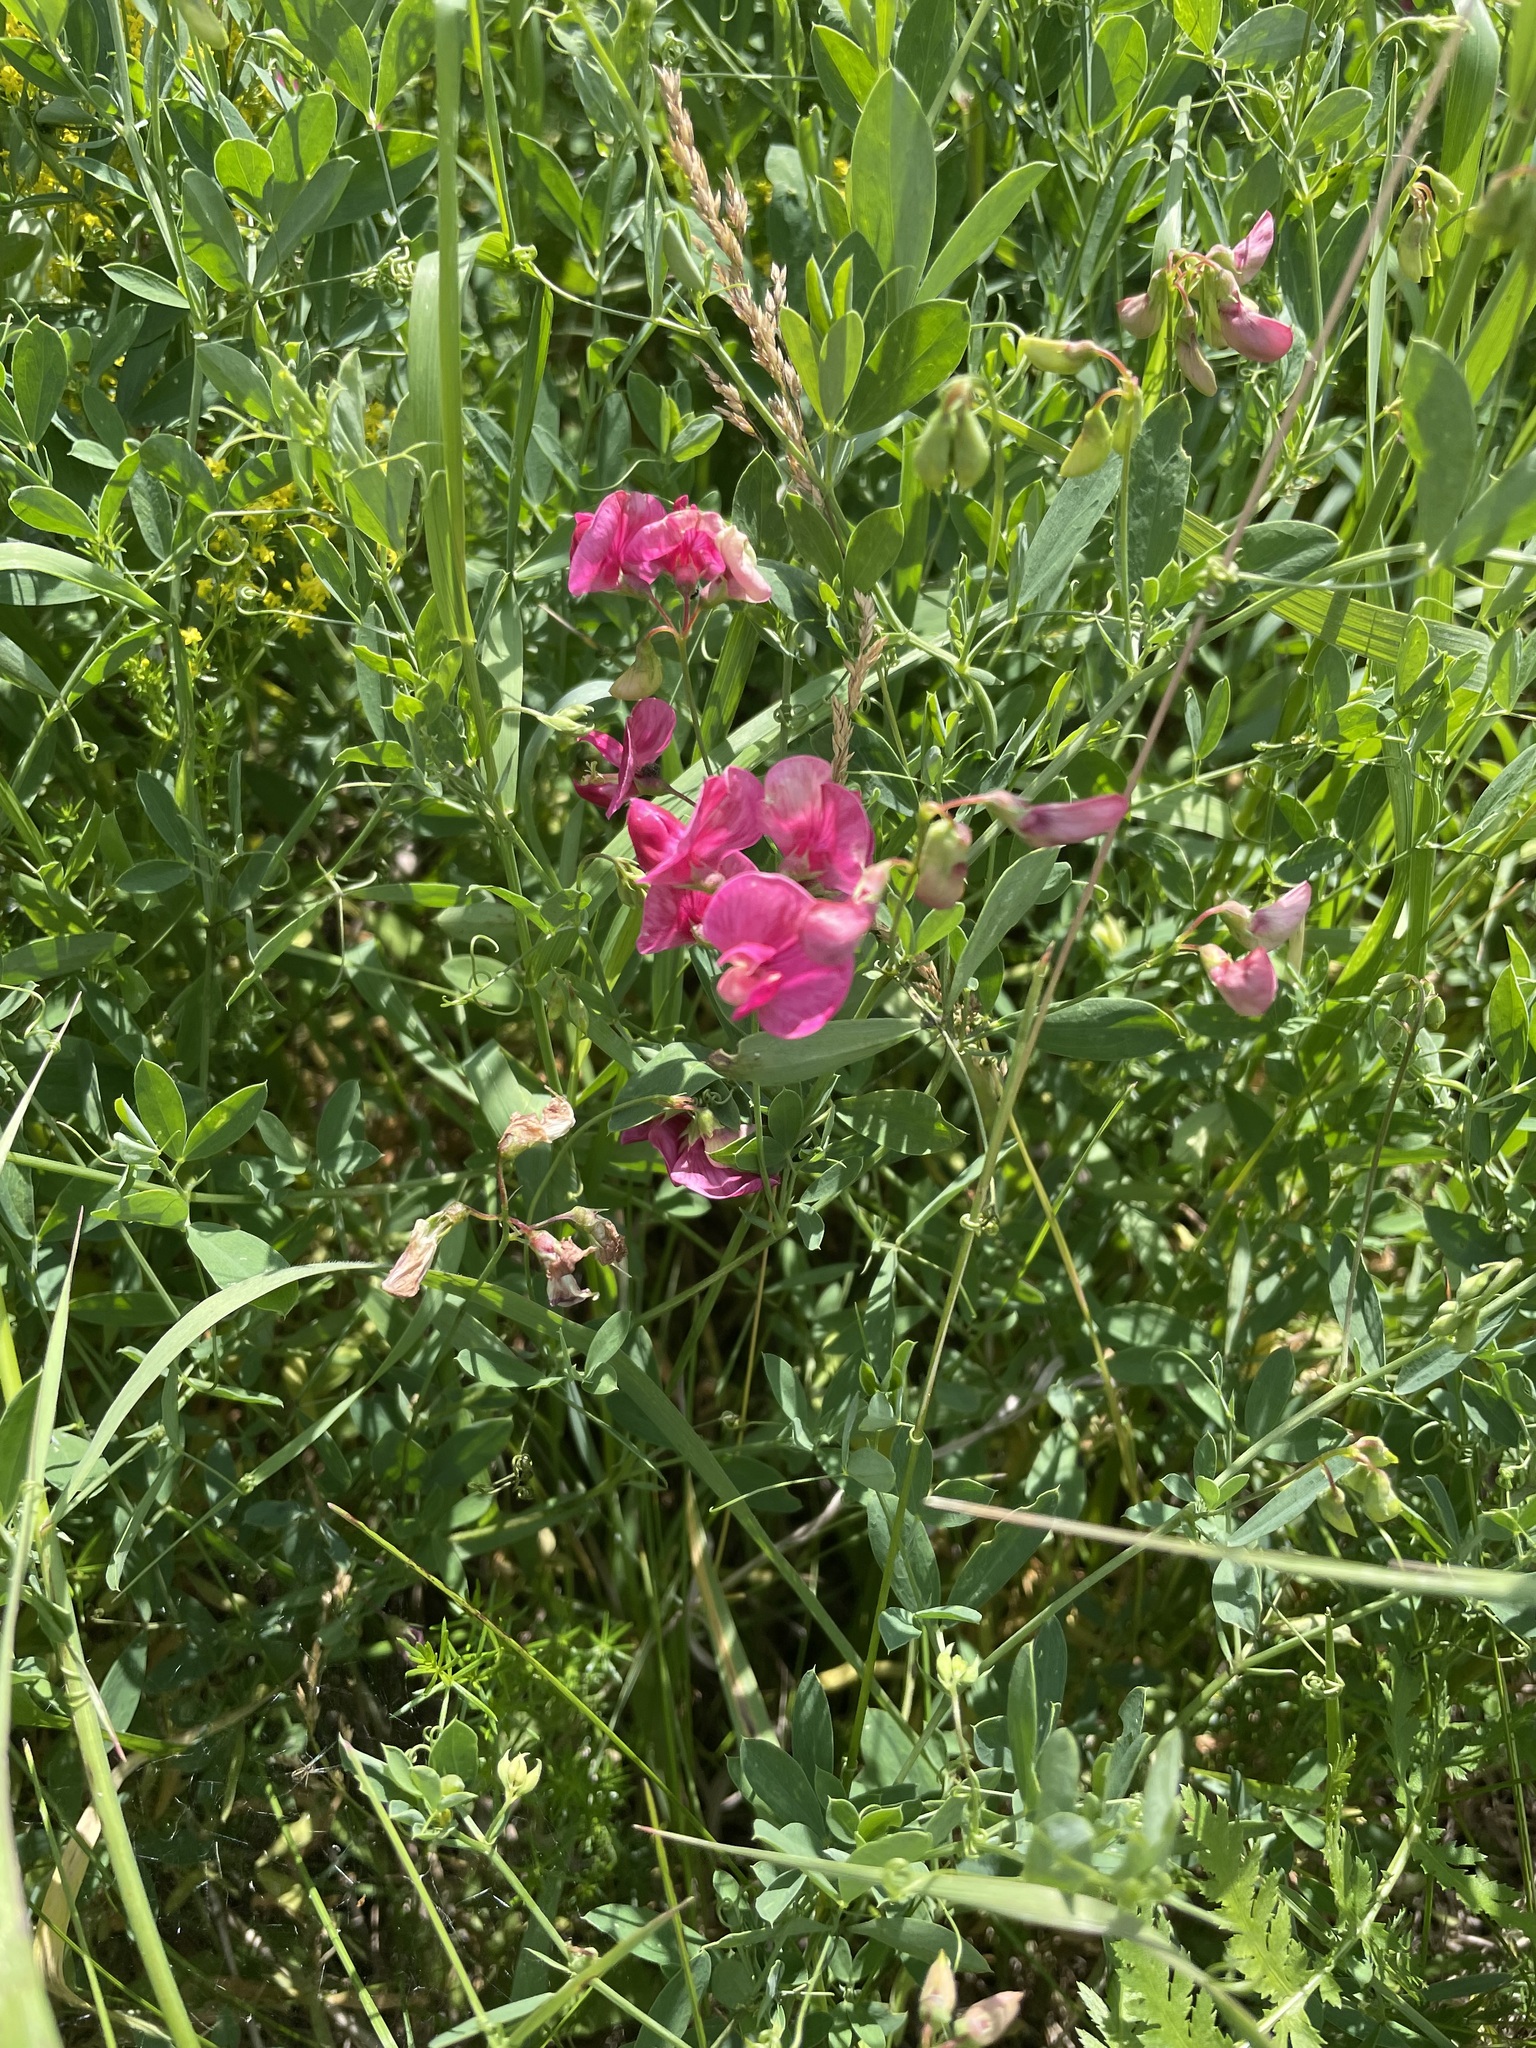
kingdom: Plantae
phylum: Tracheophyta
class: Magnoliopsida
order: Fabales
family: Fabaceae
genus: Lathyrus
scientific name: Lathyrus tuberosus
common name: Tuberous pea
